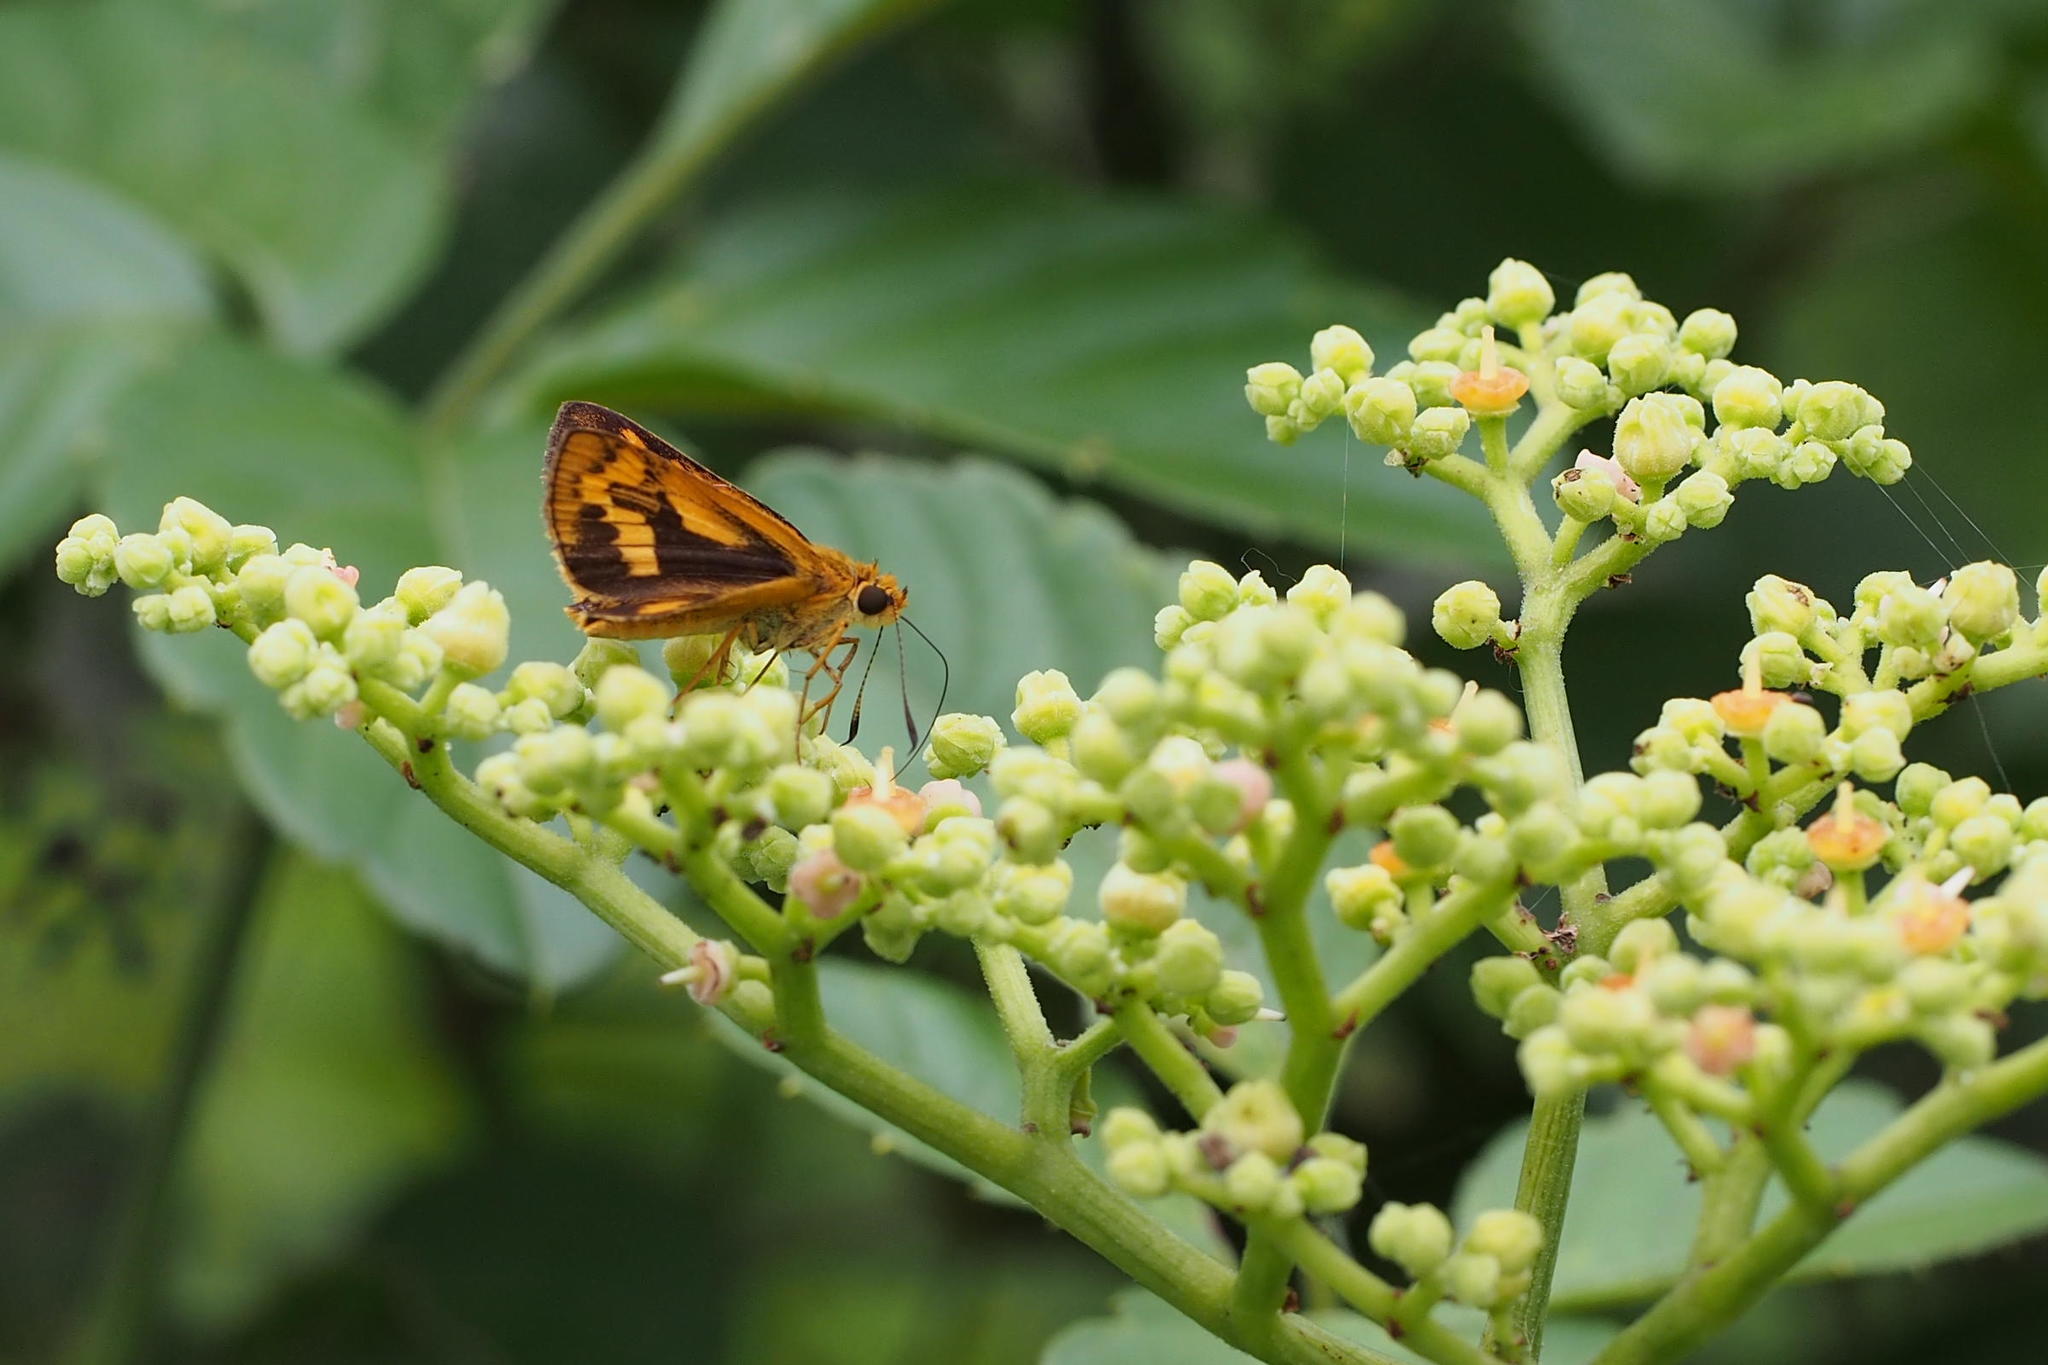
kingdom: Animalia
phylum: Arthropoda
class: Insecta
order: Lepidoptera
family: Hesperiidae
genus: Potanthus
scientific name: Potanthus flava
